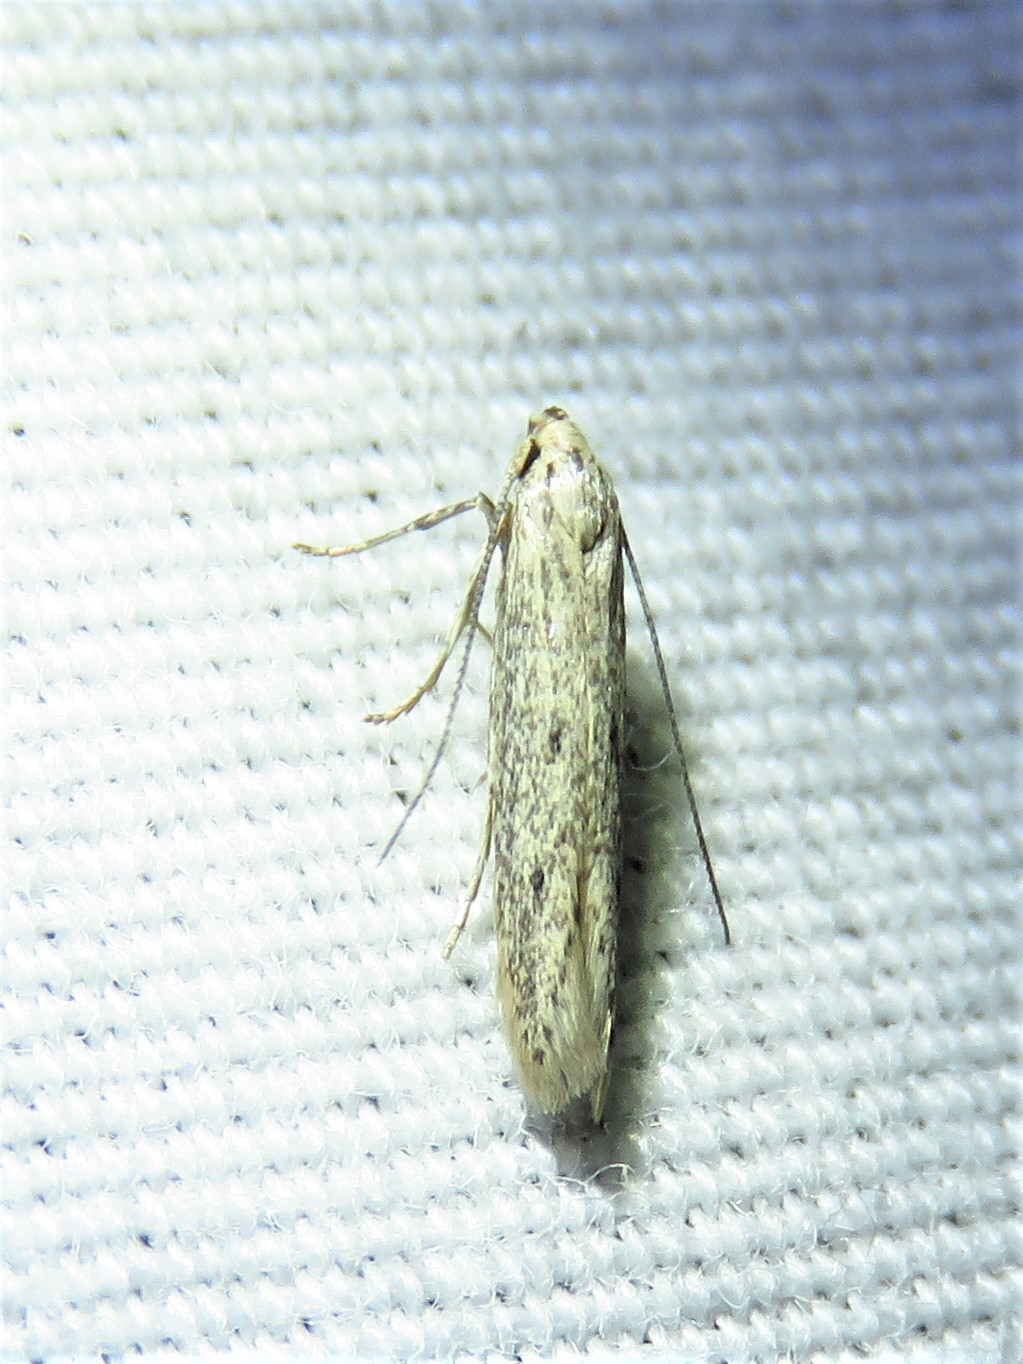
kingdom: Animalia
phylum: Arthropoda
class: Insecta
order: Lepidoptera
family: Elachistidae
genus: Haplochrois
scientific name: Haplochrois bipunctella
